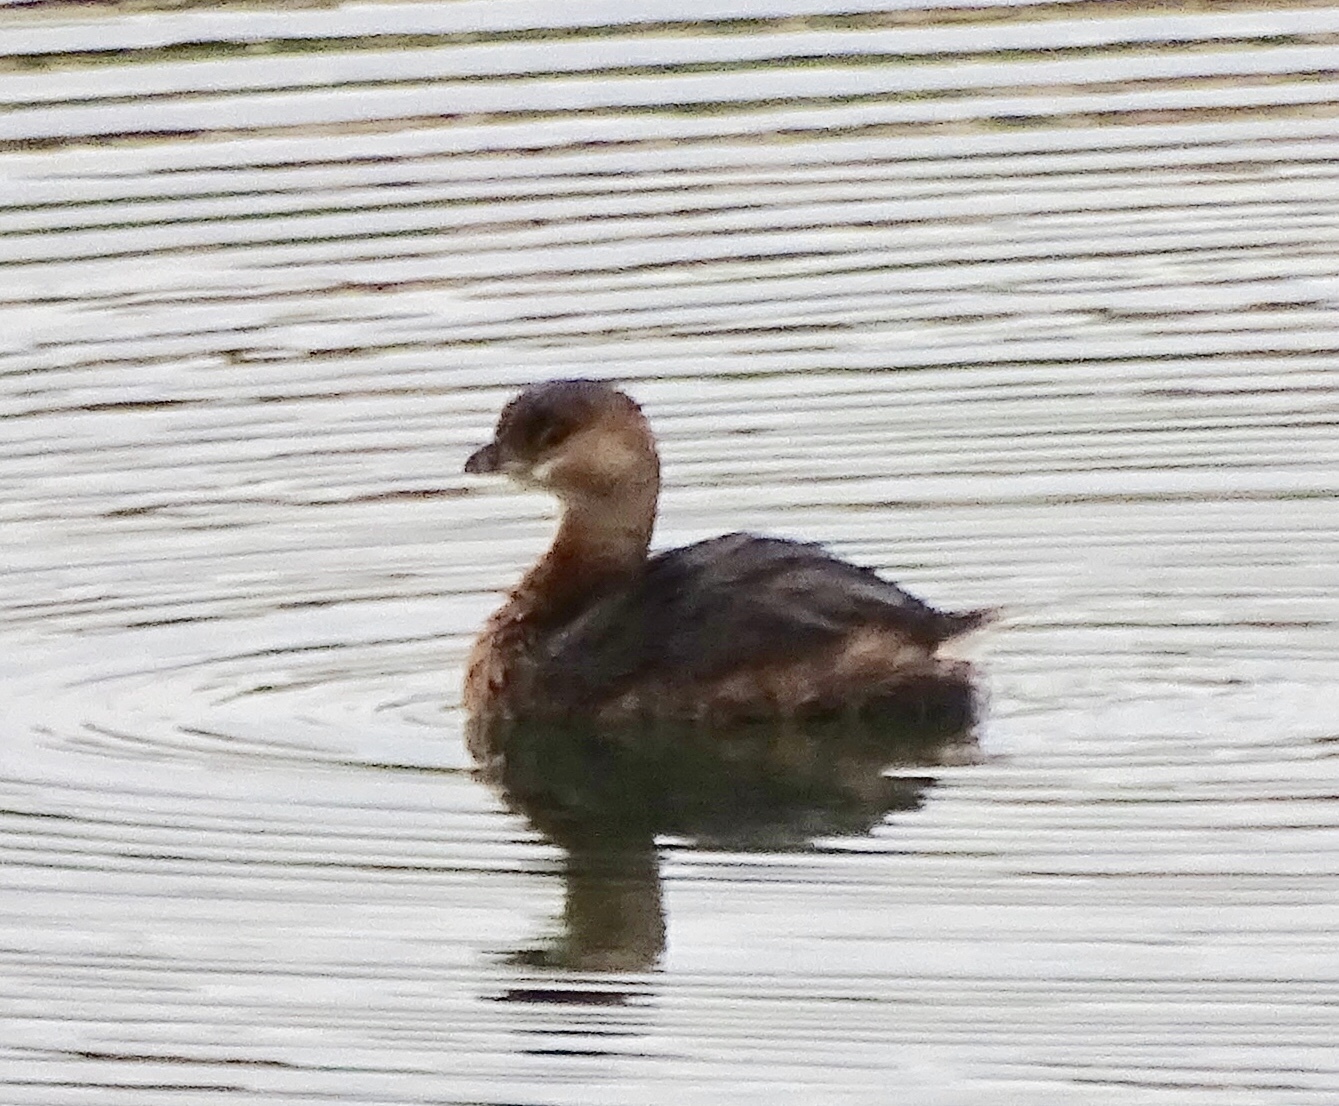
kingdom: Animalia
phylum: Chordata
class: Aves
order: Podicipediformes
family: Podicipedidae
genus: Podilymbus
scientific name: Podilymbus podiceps
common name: Pied-billed grebe
